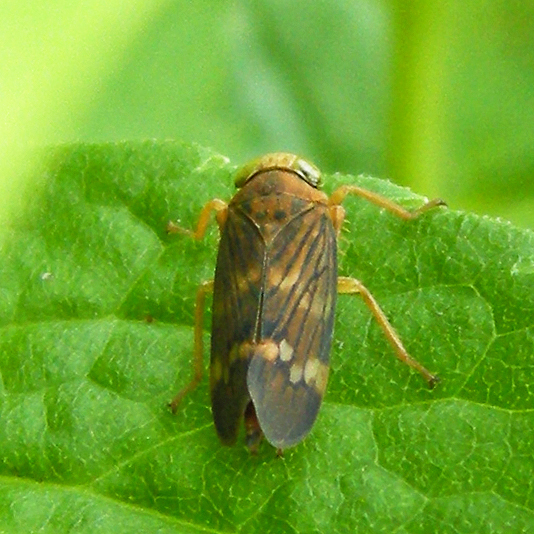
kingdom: Animalia
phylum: Arthropoda
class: Insecta
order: Hemiptera
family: Cicadellidae
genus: Jikradia
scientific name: Jikradia olitoria
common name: Coppery leafhopper
